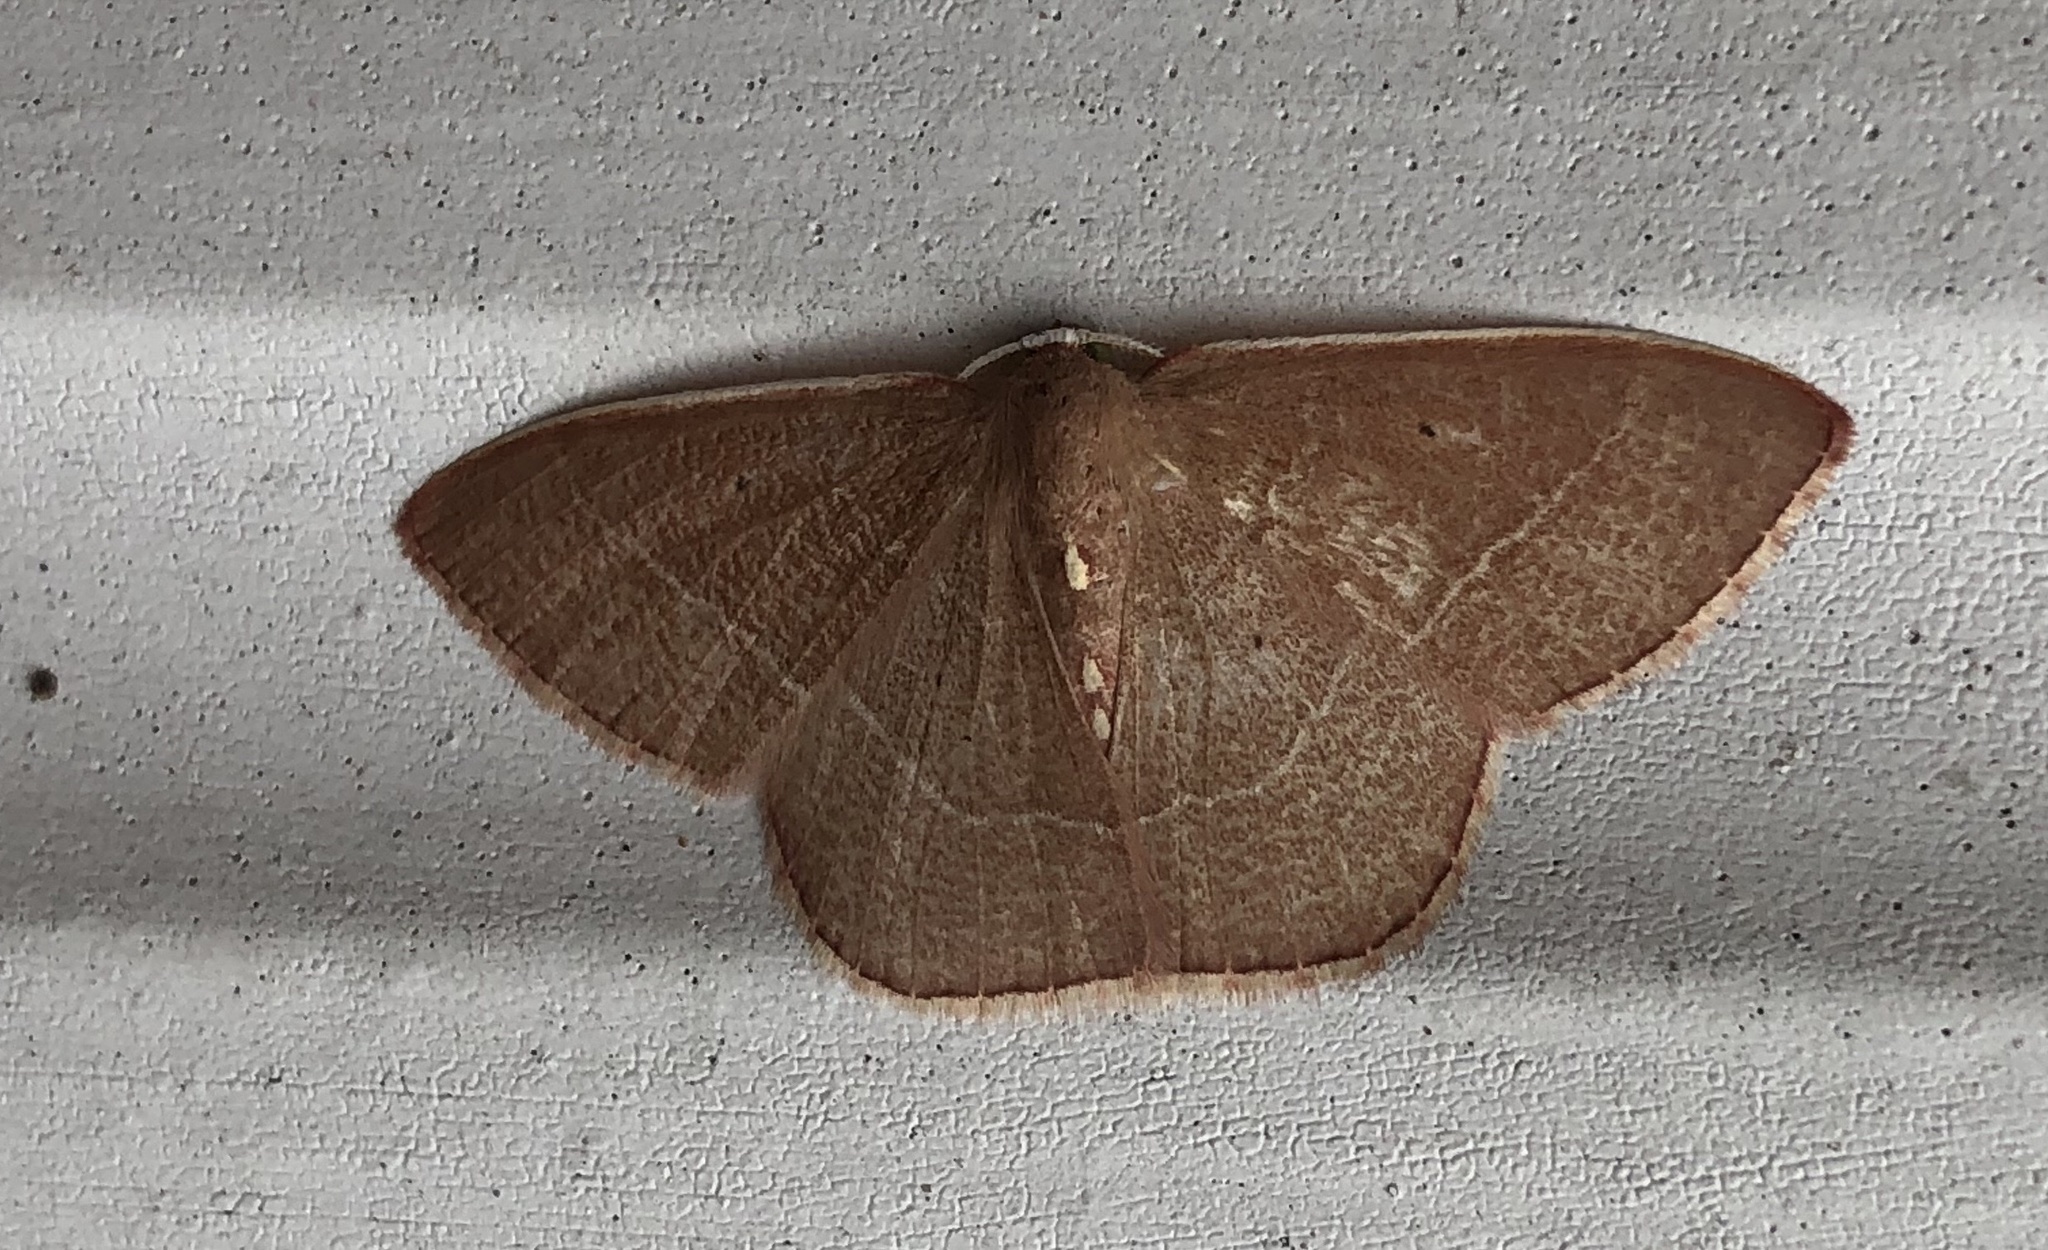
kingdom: Animalia
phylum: Arthropoda
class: Insecta
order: Lepidoptera
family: Geometridae
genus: Nemoria
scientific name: Nemoria bistriaria
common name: Red-fringed emerald
